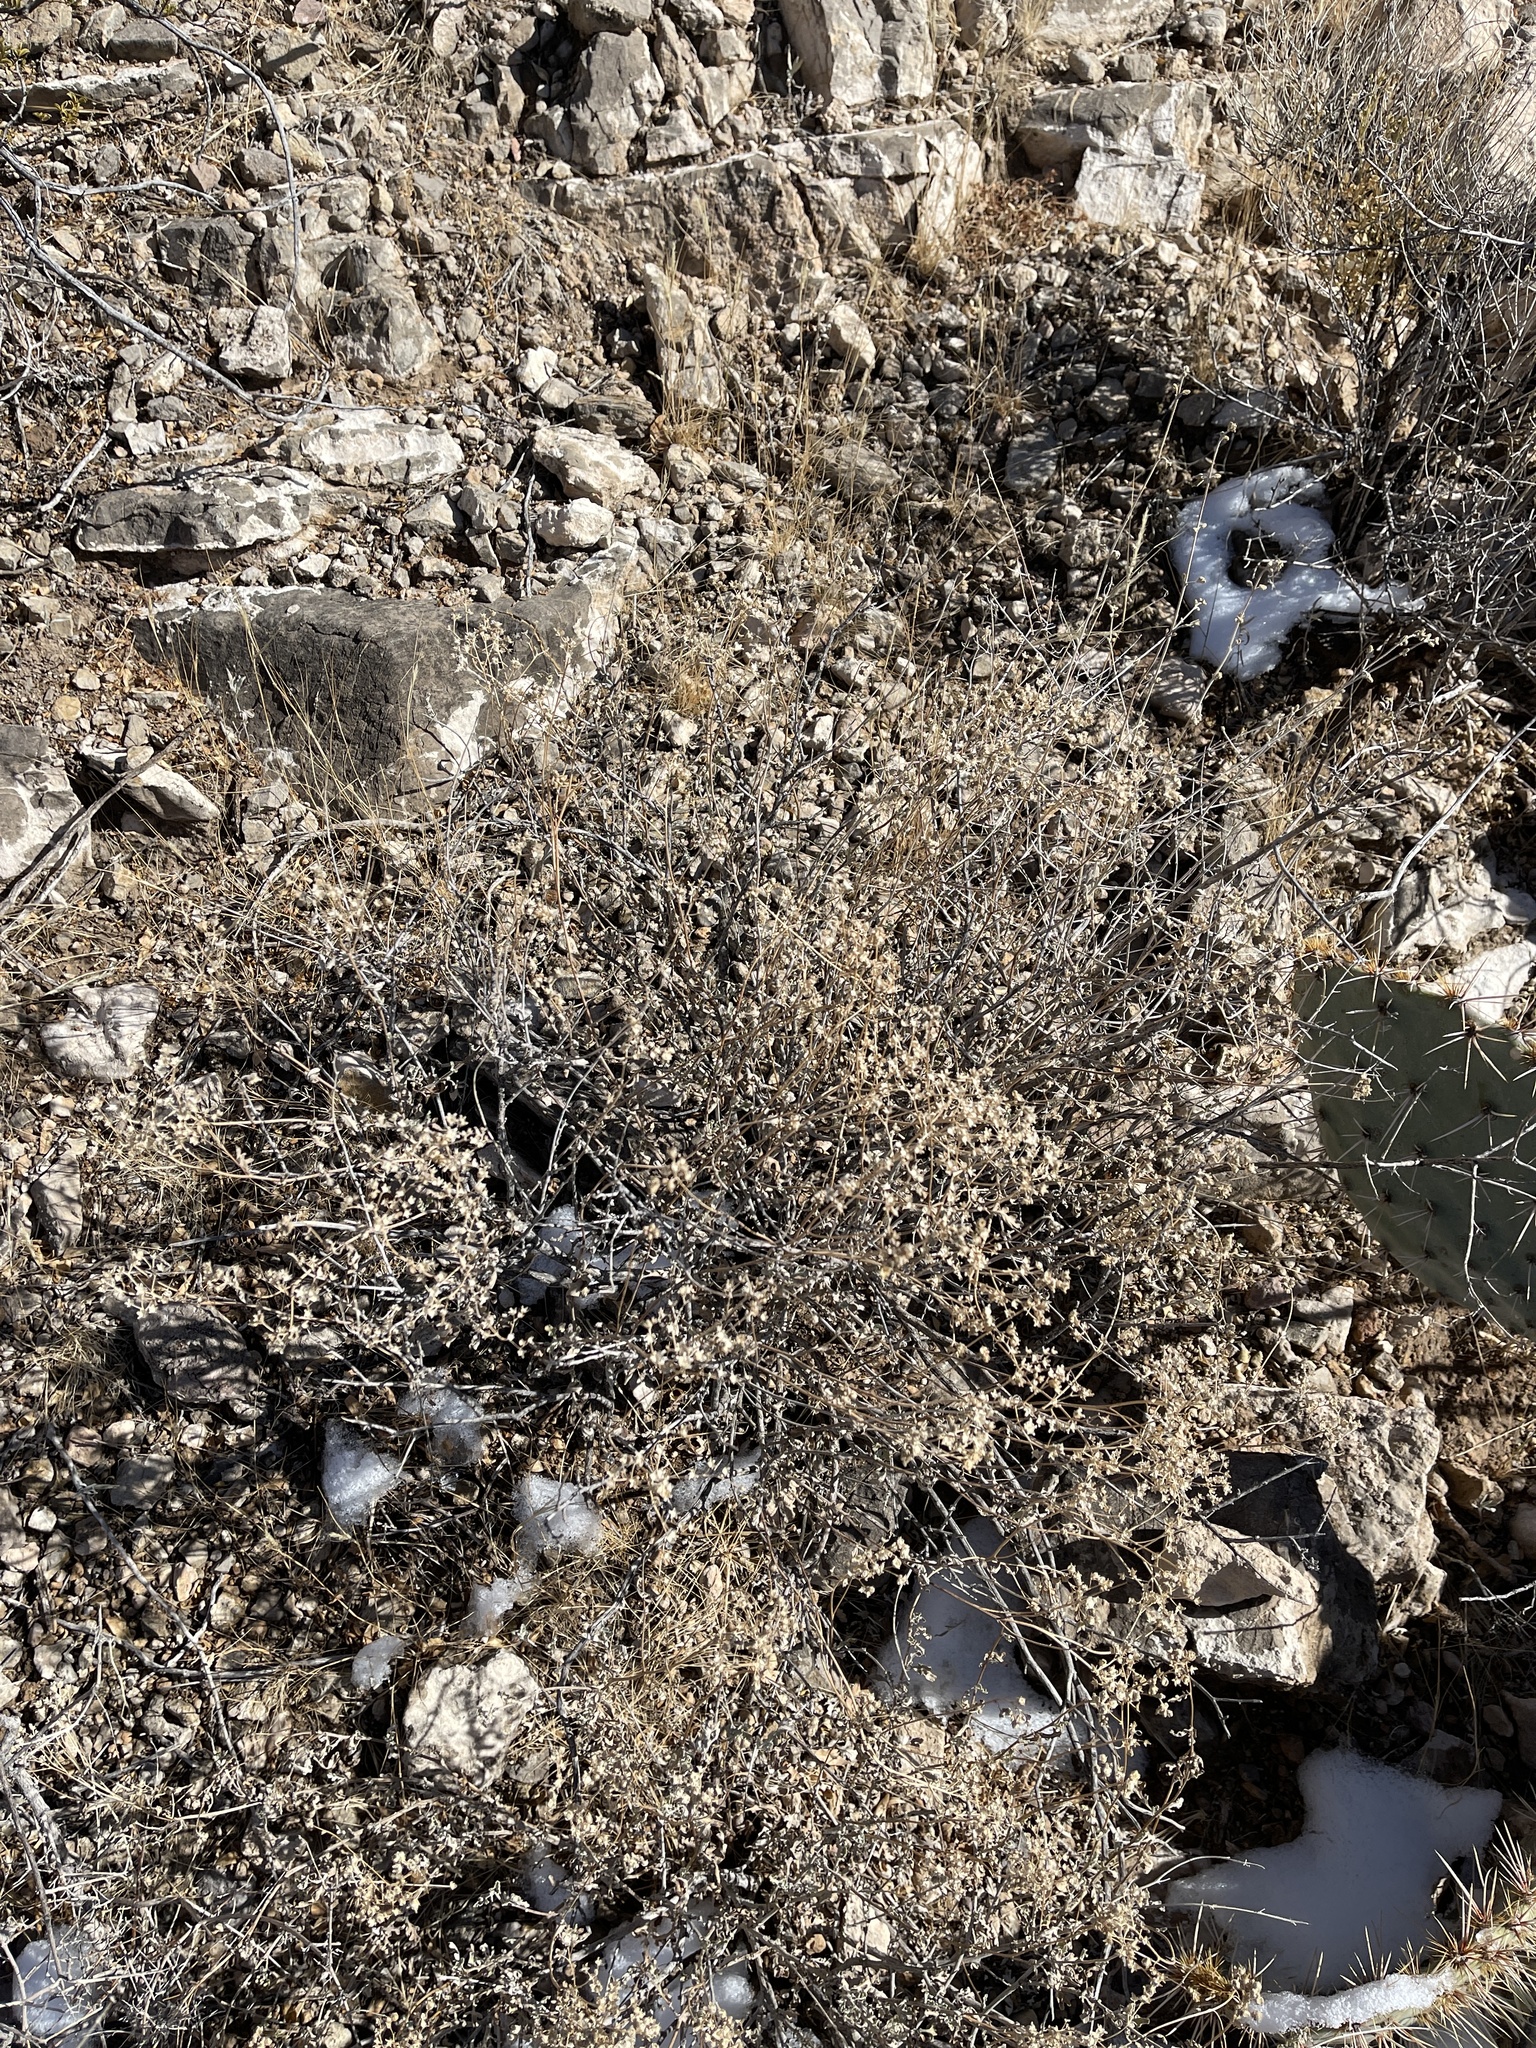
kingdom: Plantae
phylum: Tracheophyta
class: Magnoliopsida
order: Asterales
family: Asteraceae
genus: Parthenium
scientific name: Parthenium incanum
